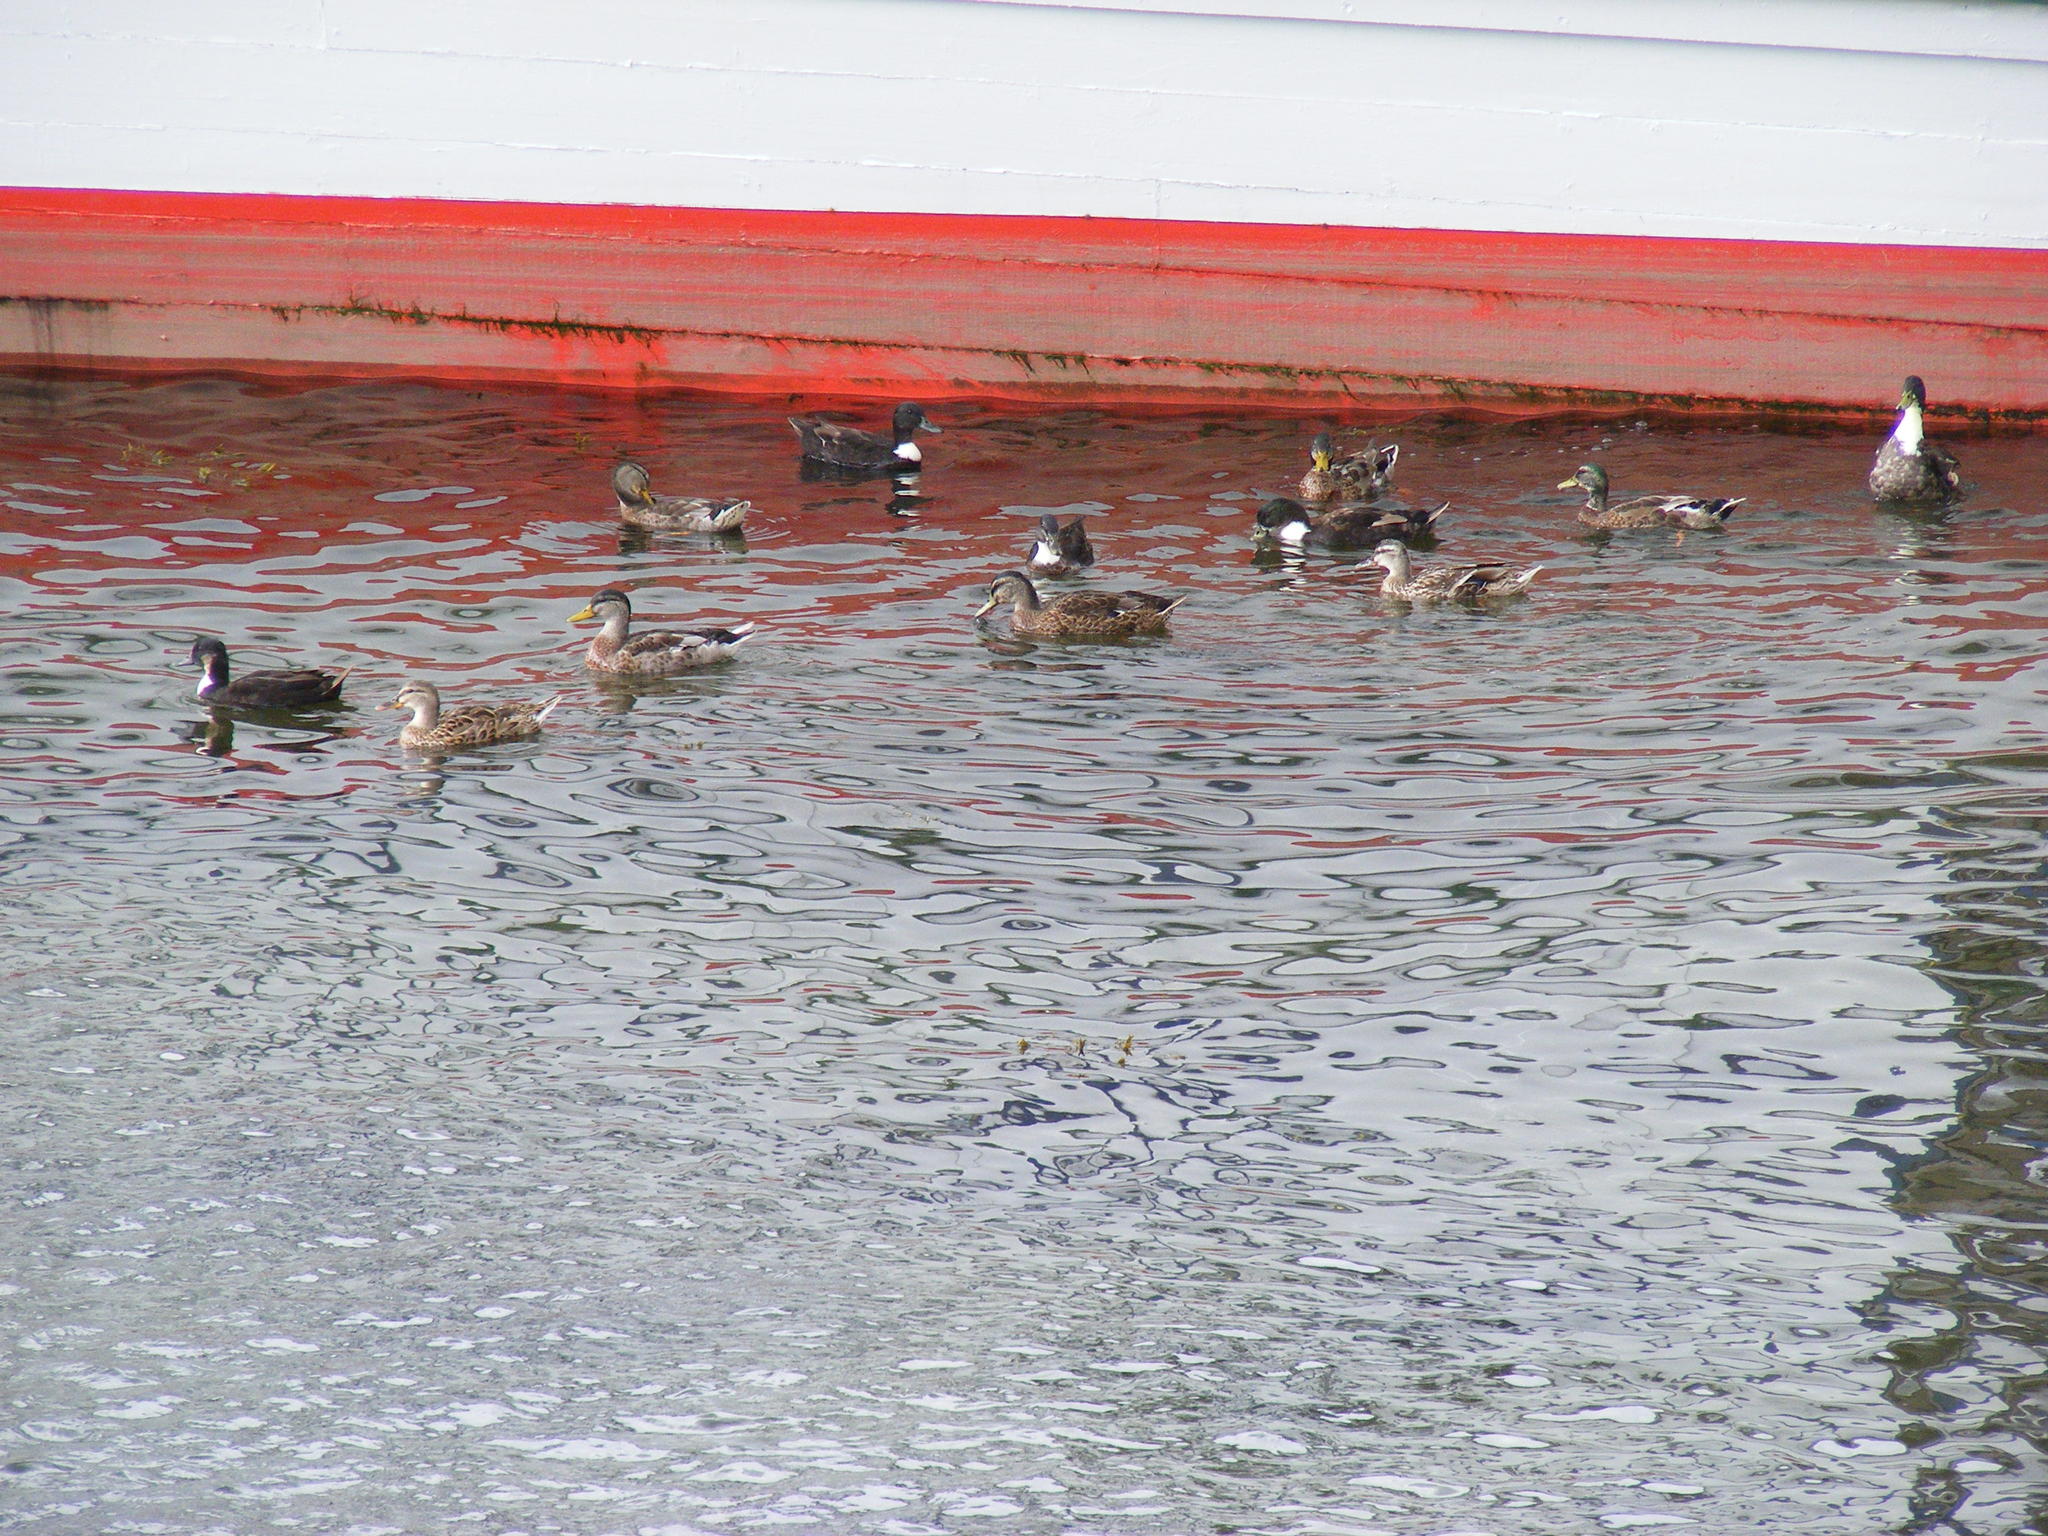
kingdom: Animalia
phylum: Chordata
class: Aves
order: Anseriformes
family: Anatidae
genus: Anas
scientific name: Anas platyrhynchos
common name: Mallard
